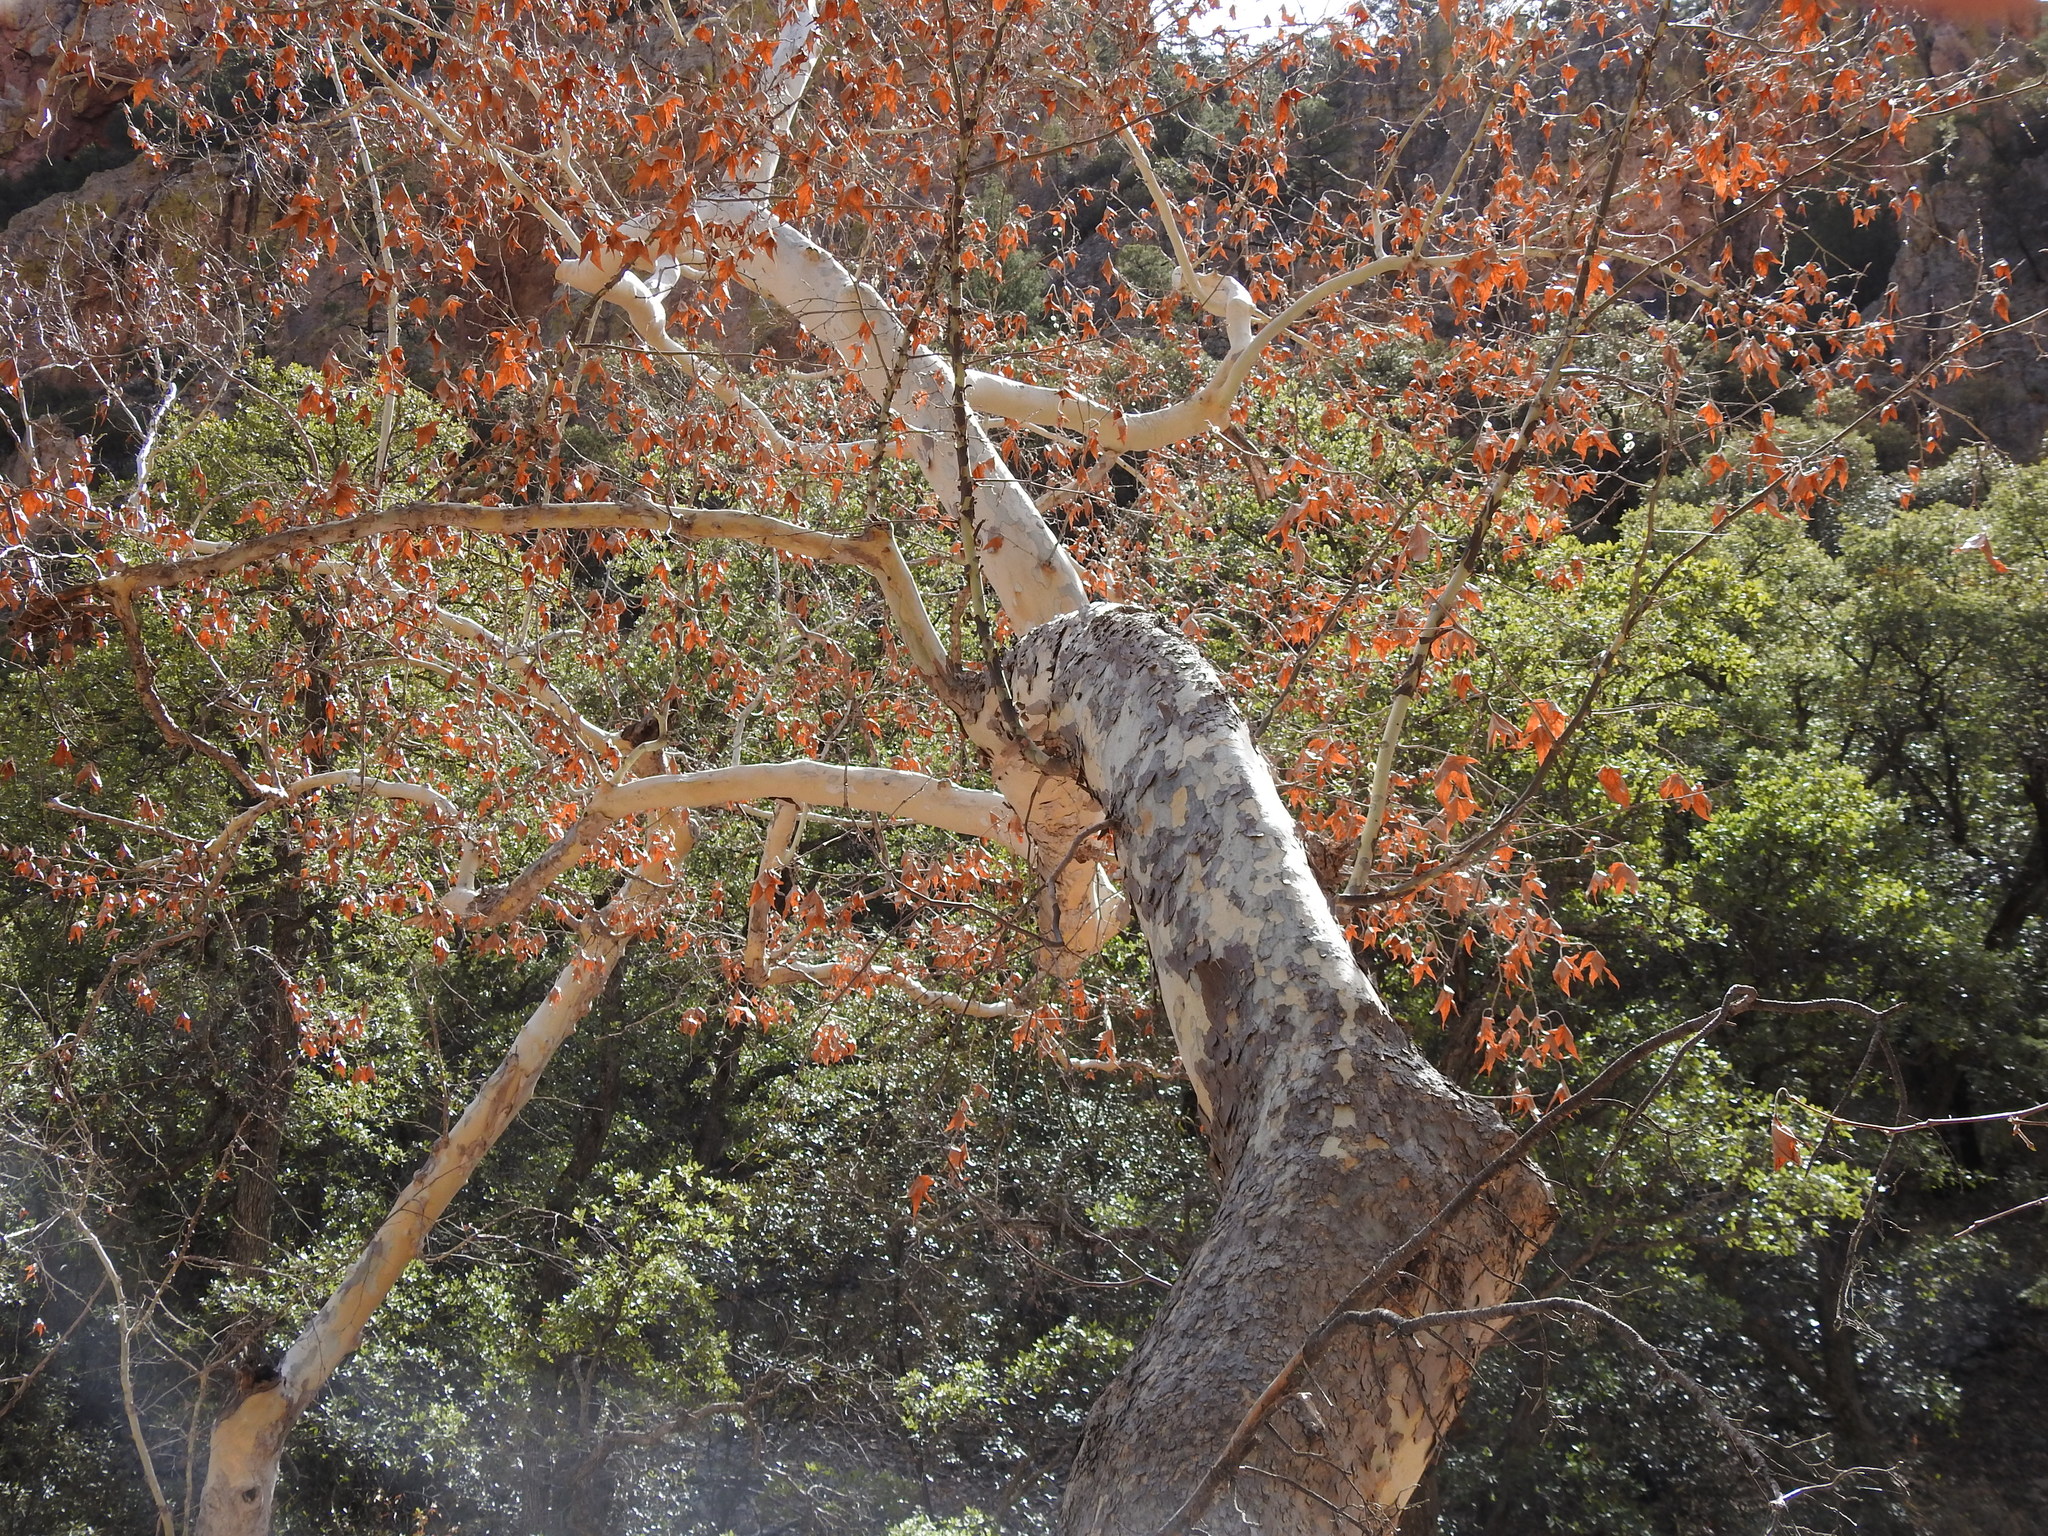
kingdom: Plantae
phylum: Tracheophyta
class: Magnoliopsida
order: Proteales
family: Platanaceae
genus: Platanus
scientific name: Platanus wrightii
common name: Arizona sycamore
